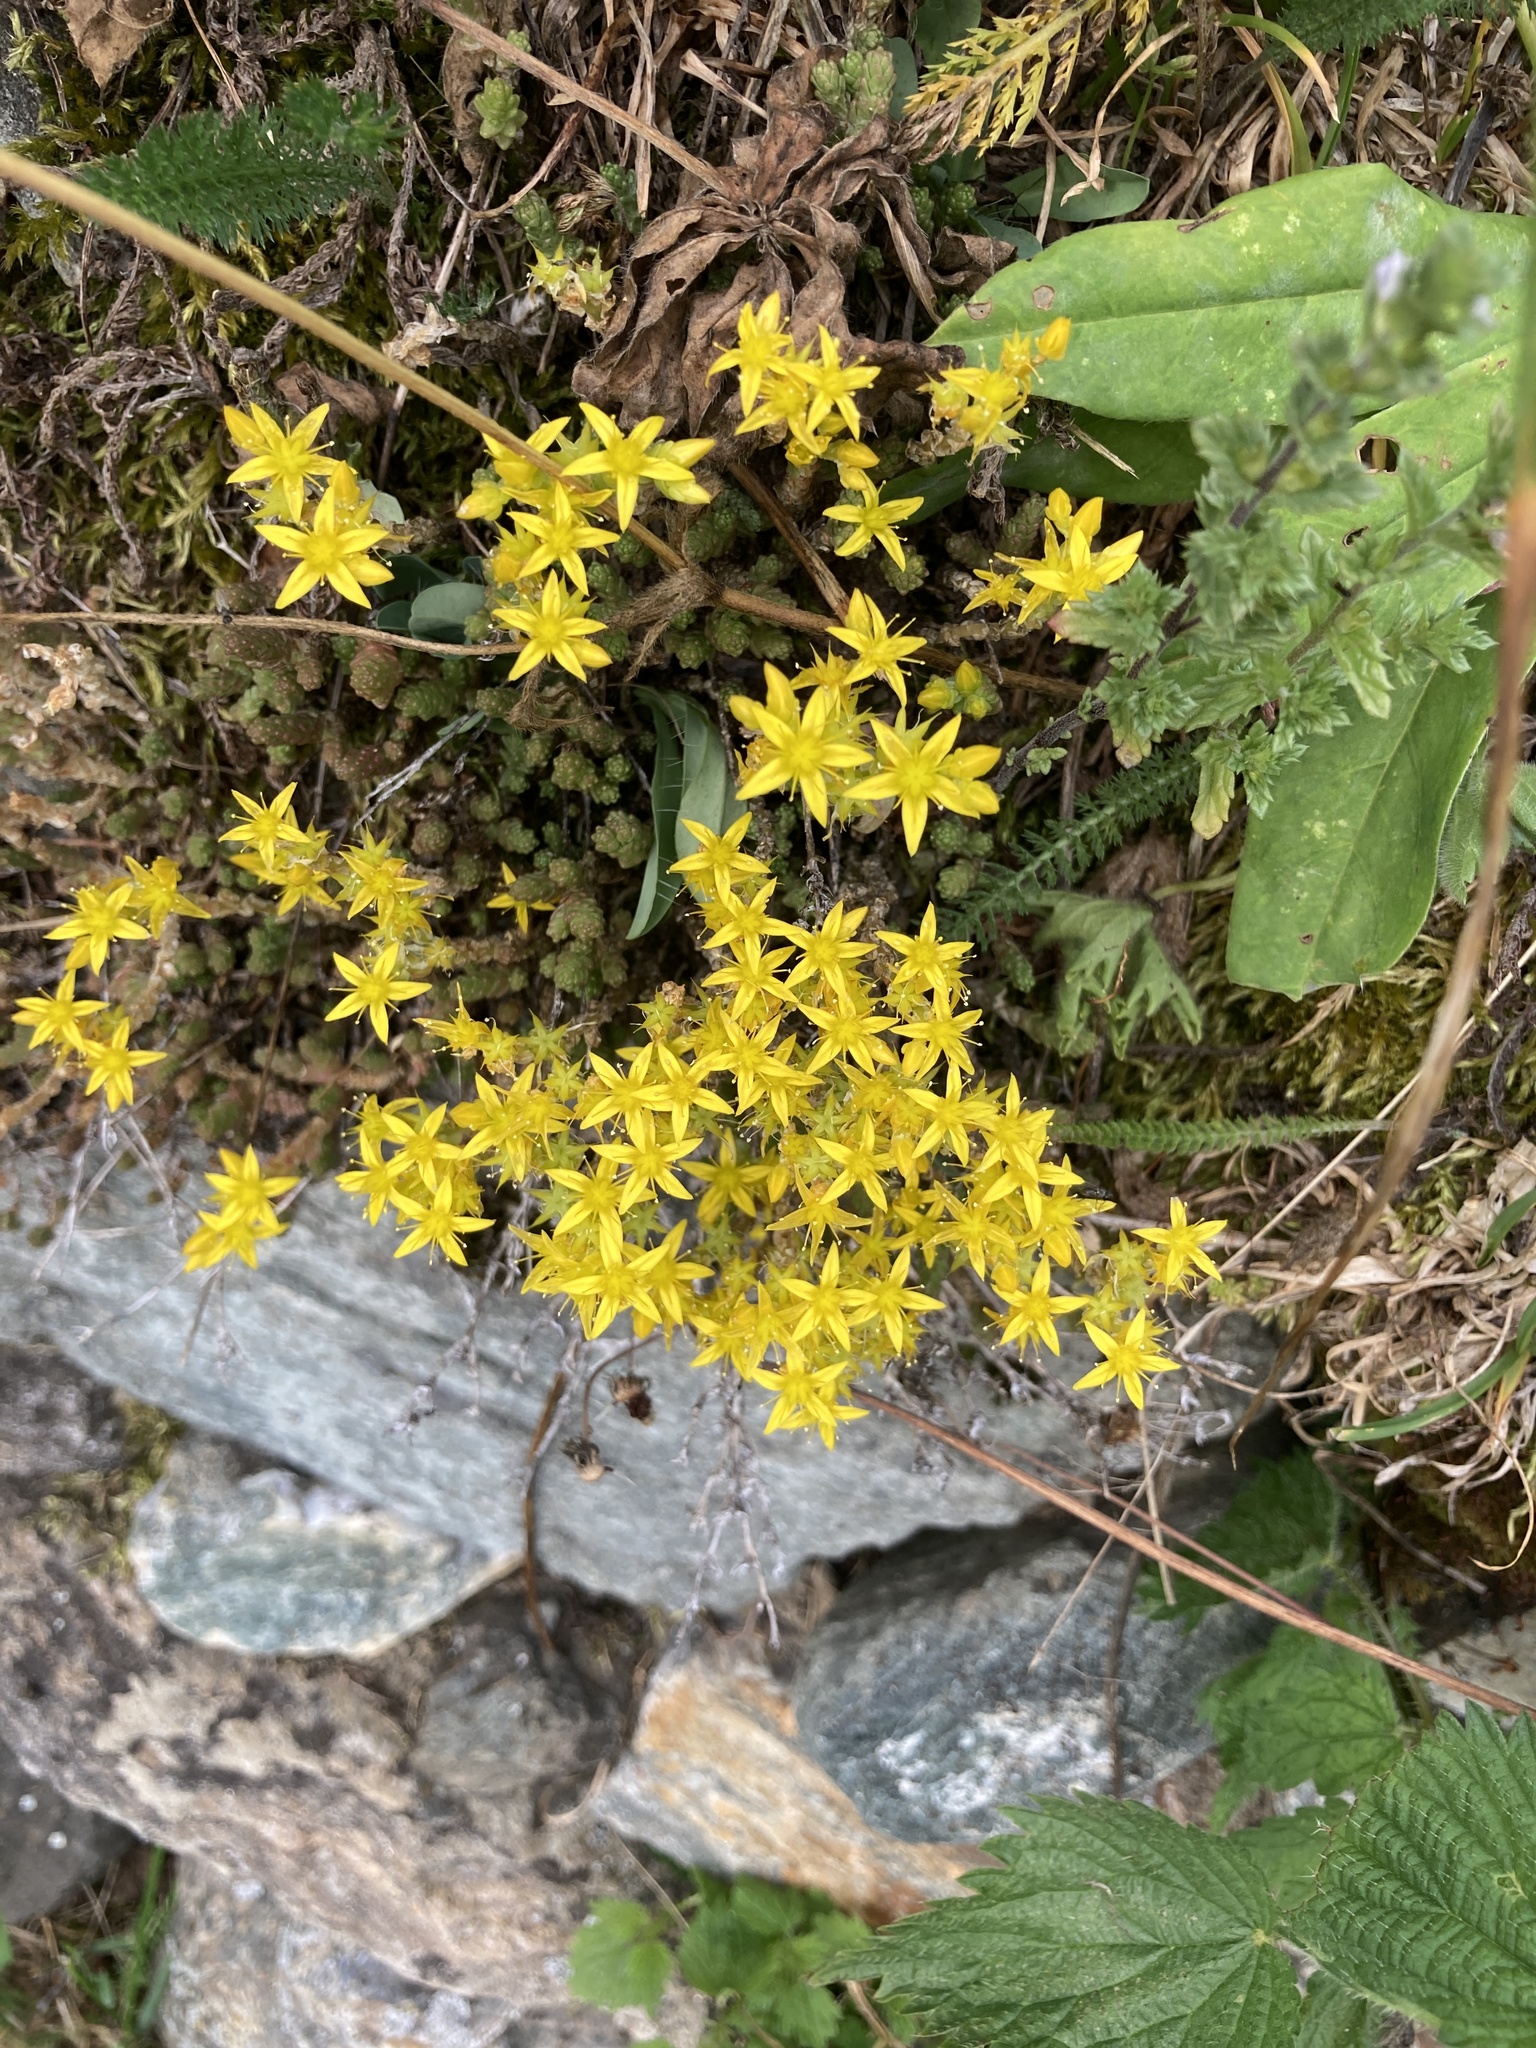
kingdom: Plantae
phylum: Tracheophyta
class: Magnoliopsida
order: Saxifragales
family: Crassulaceae
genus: Sedum
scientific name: Sedum acre
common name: Biting stonecrop
